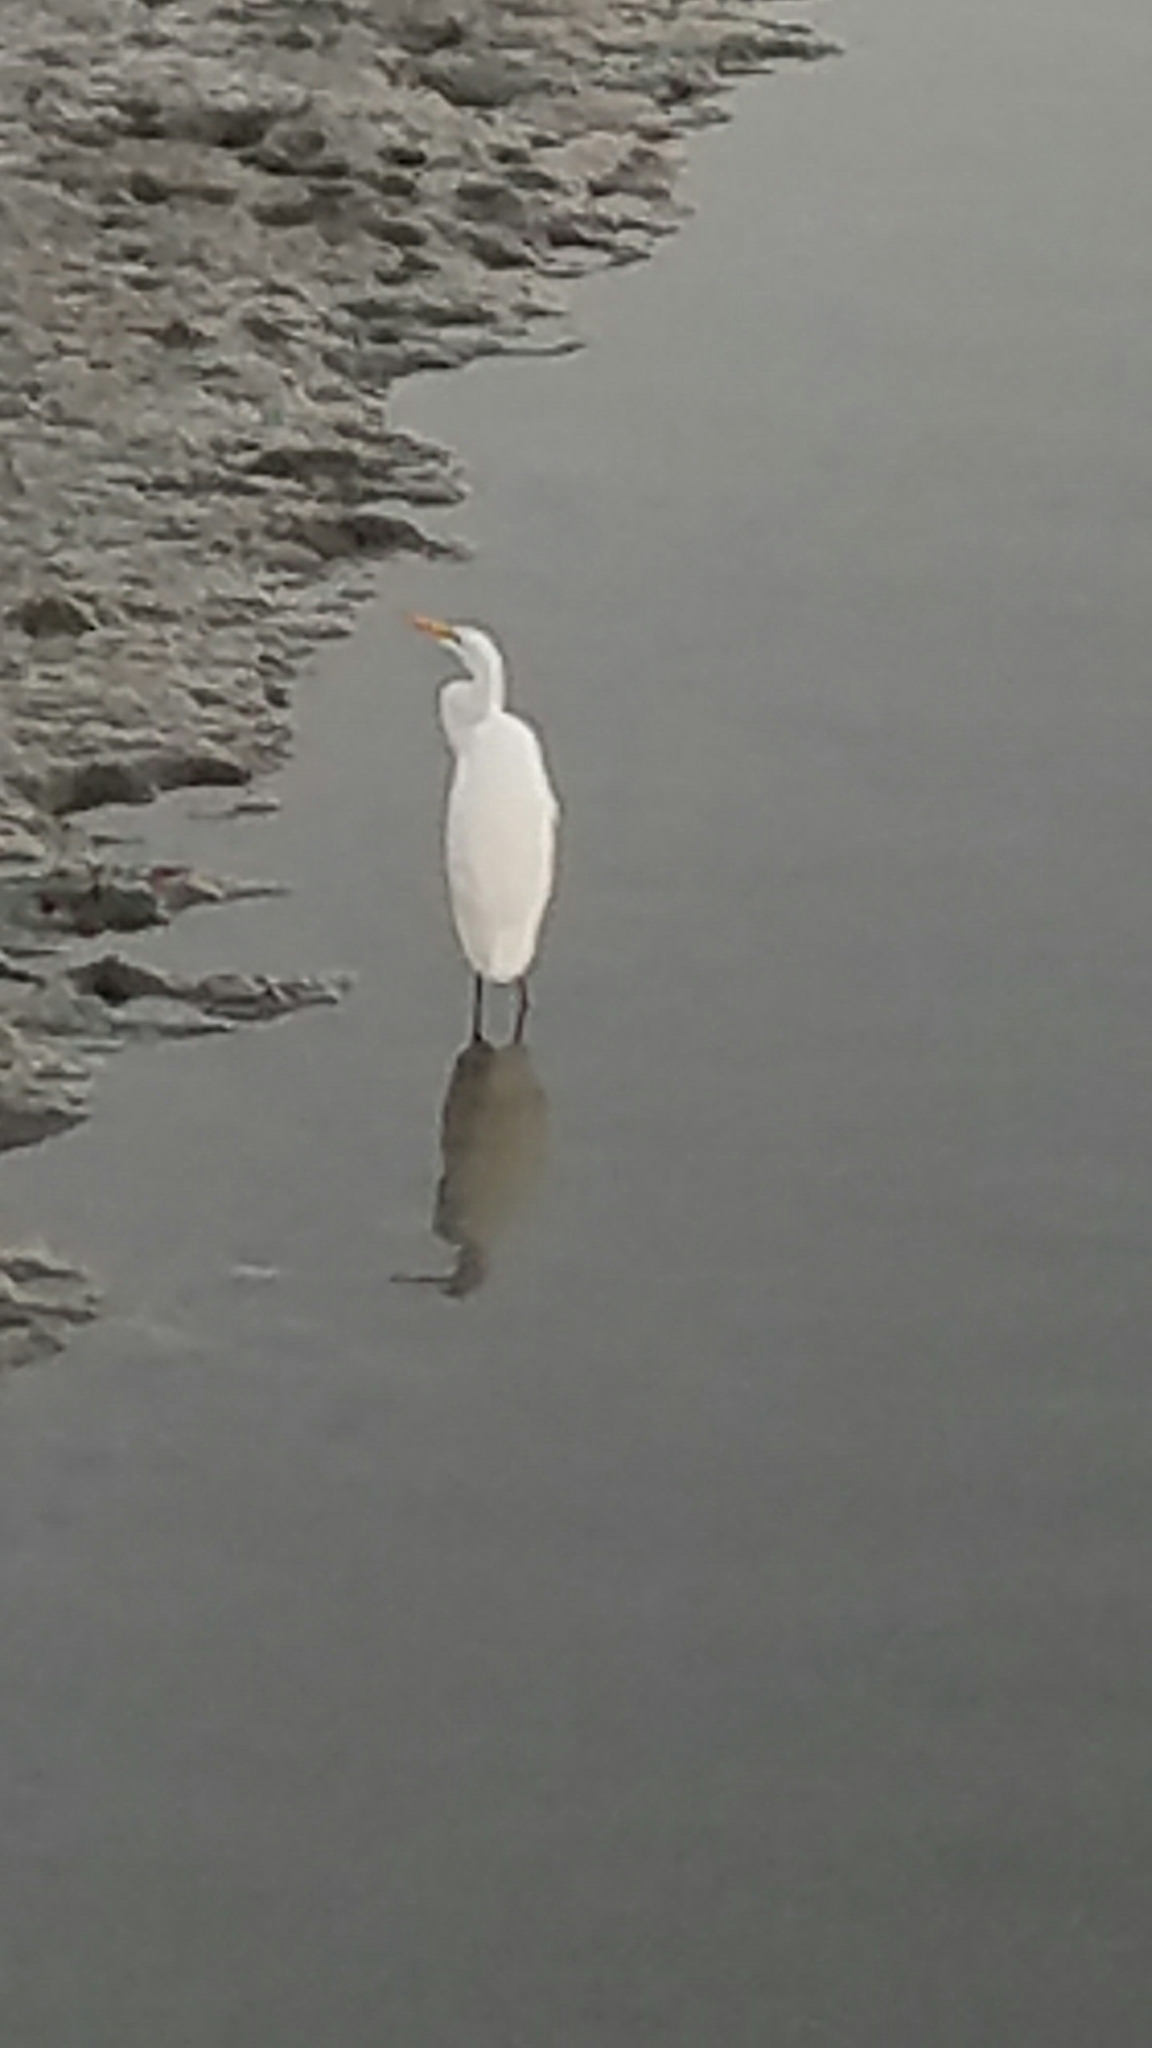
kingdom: Animalia
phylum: Chordata
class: Aves
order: Pelecaniformes
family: Ardeidae
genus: Ardea
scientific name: Ardea alba
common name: Great egret
